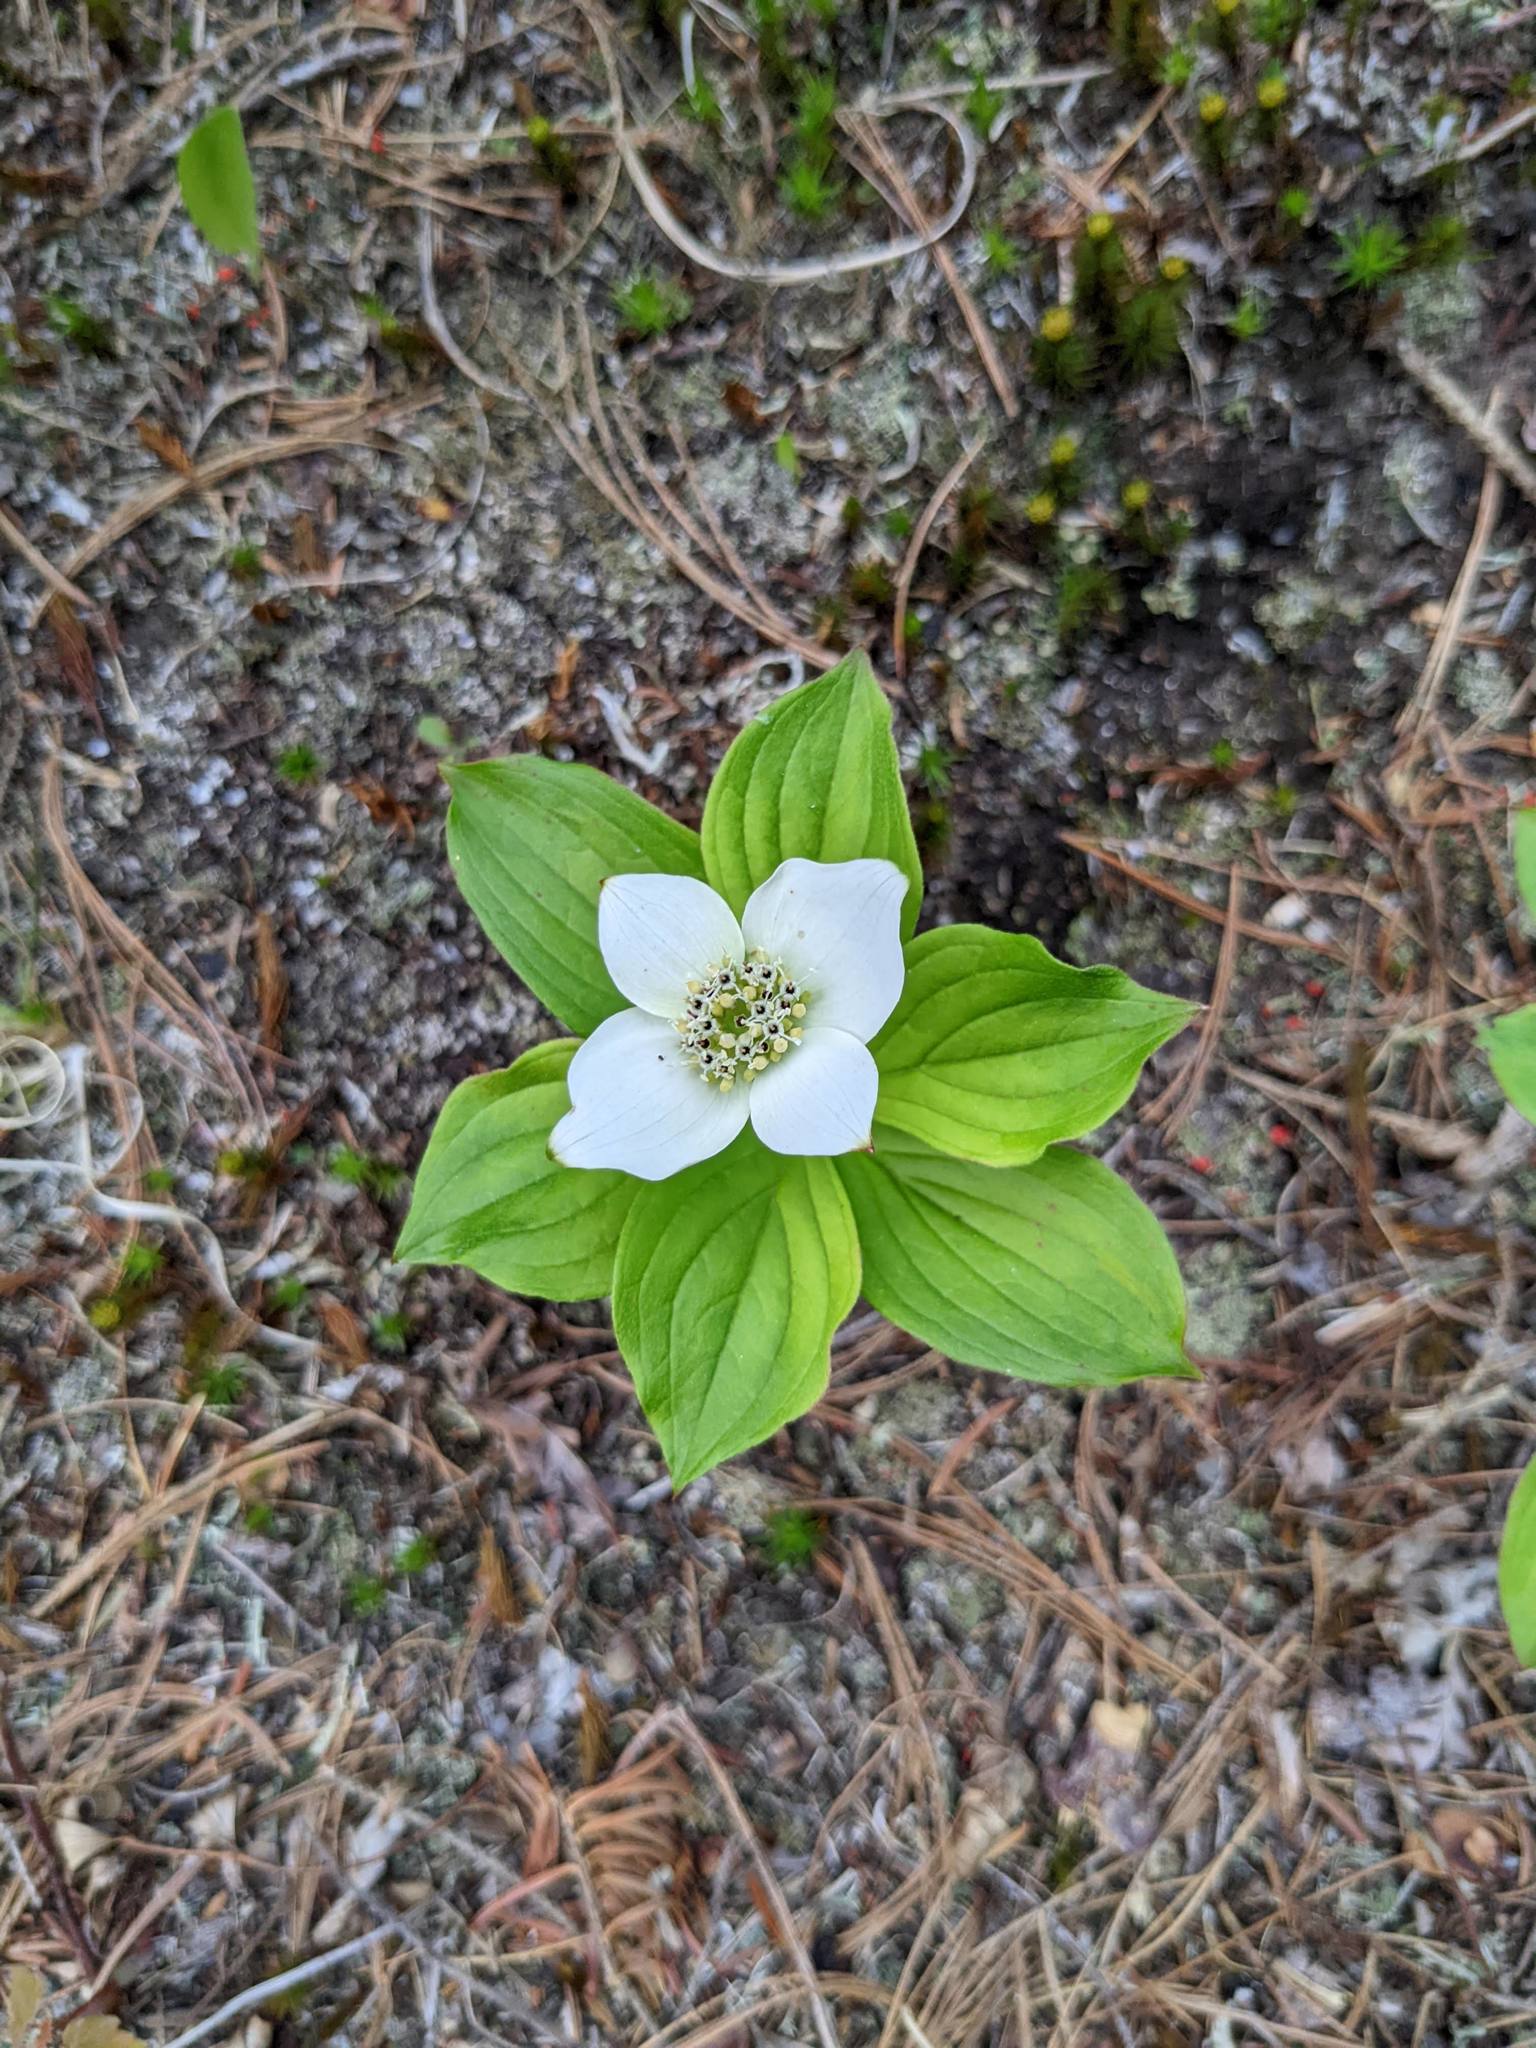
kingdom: Plantae
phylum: Tracheophyta
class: Magnoliopsida
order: Cornales
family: Cornaceae
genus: Cornus
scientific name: Cornus canadensis
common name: Creeping dogwood
